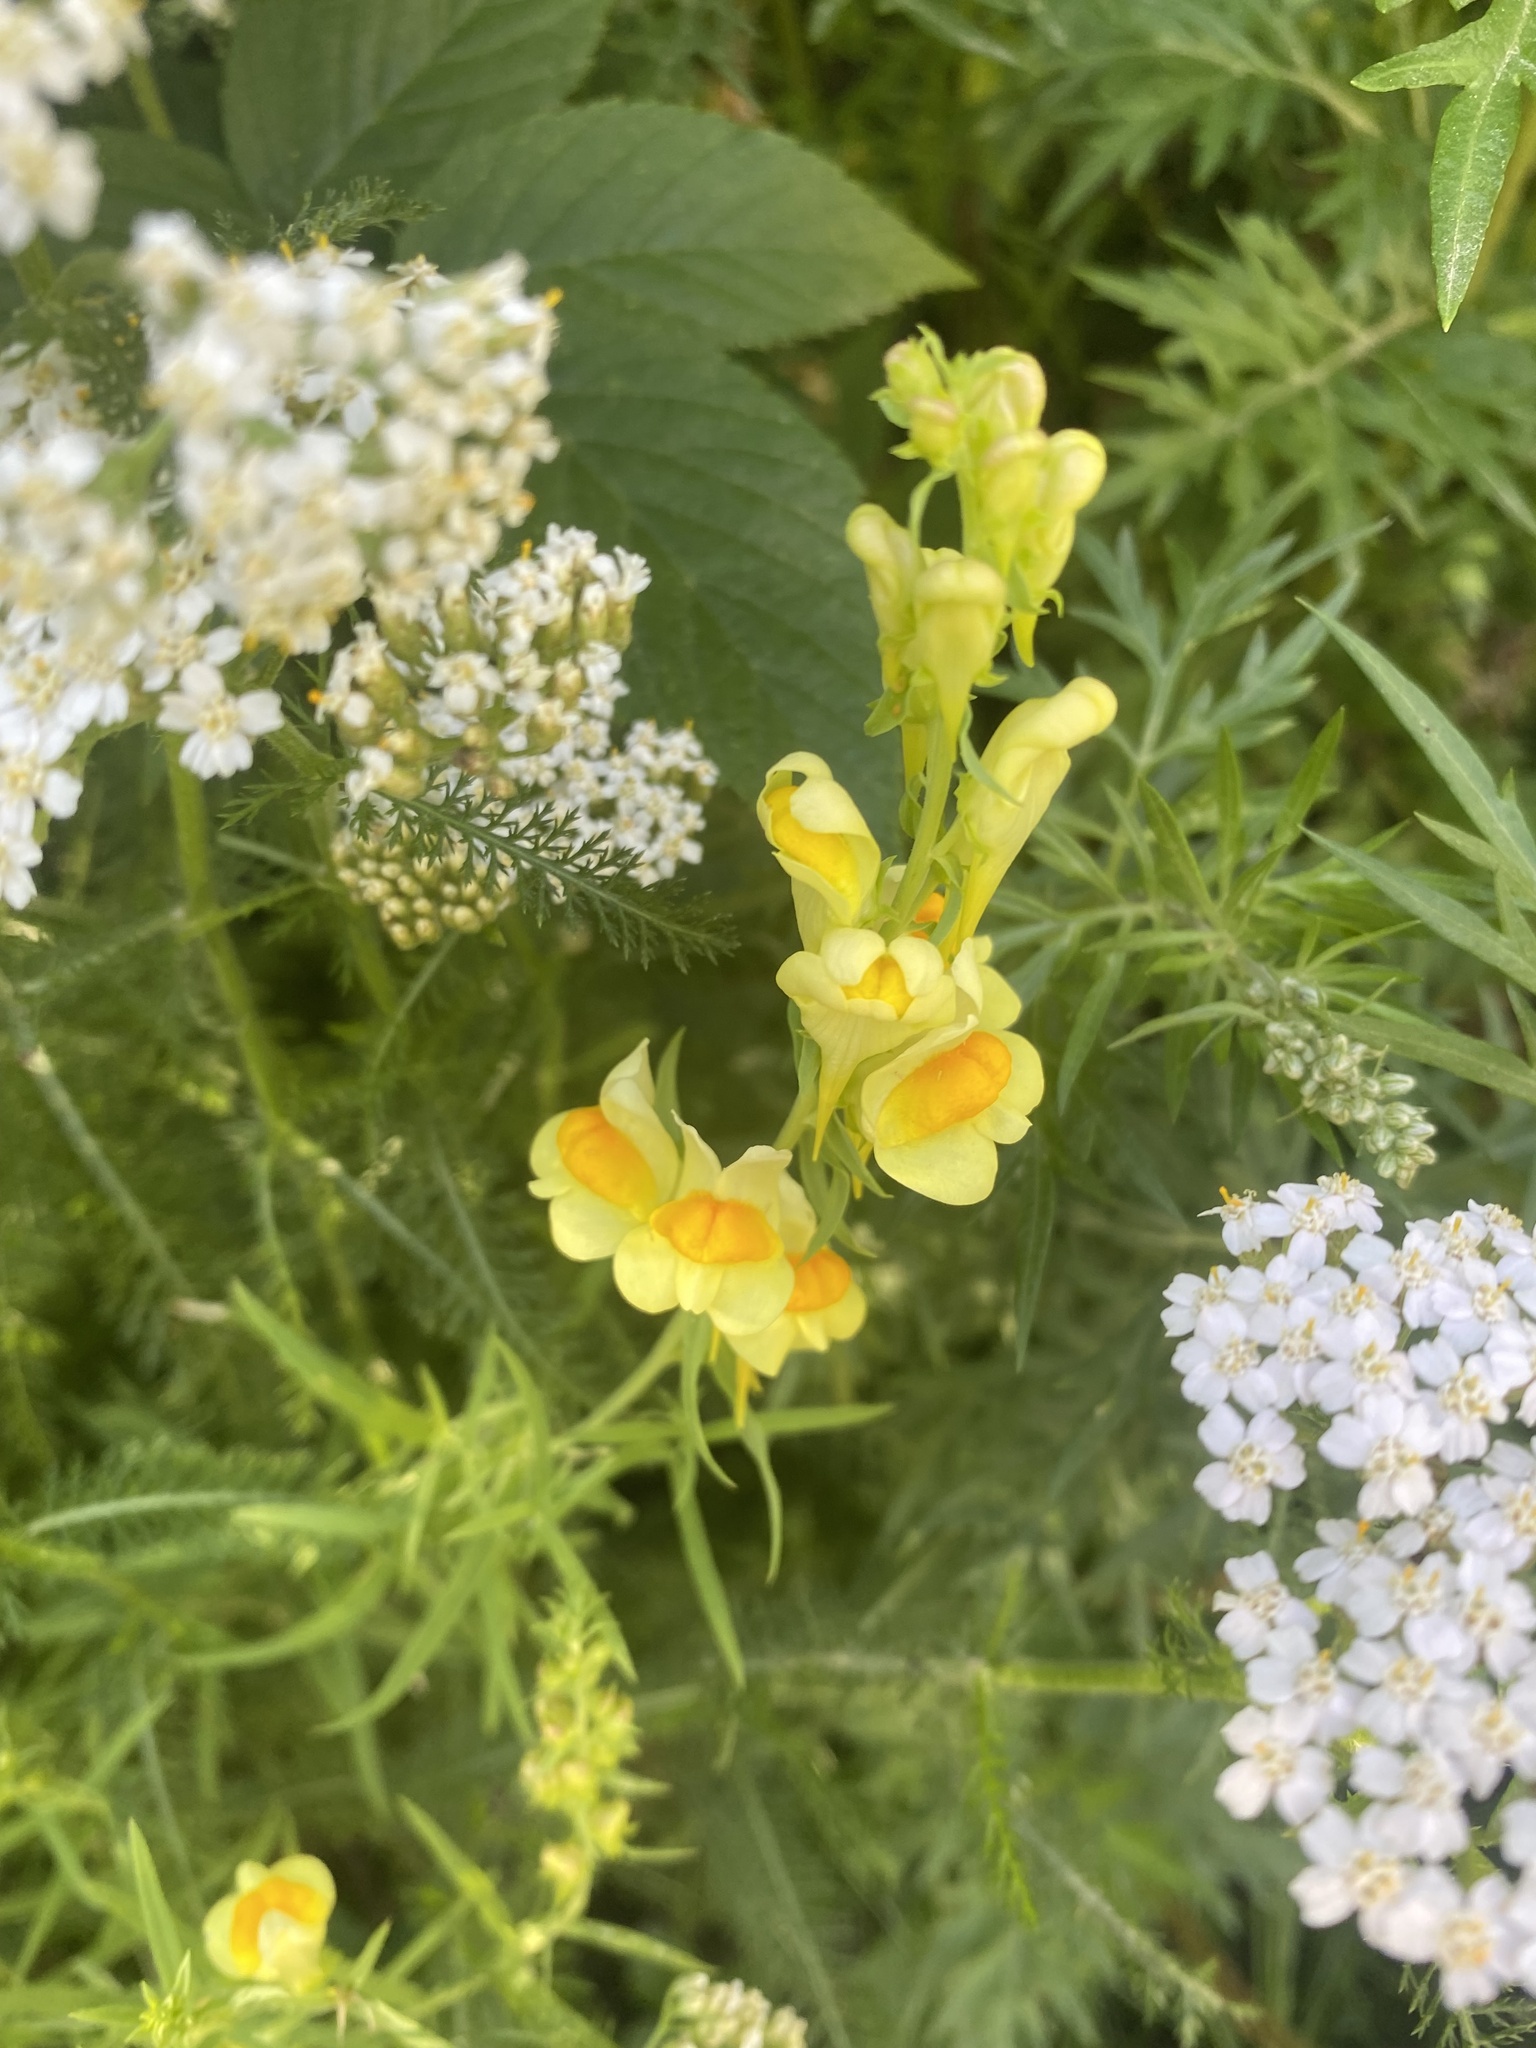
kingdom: Plantae
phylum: Tracheophyta
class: Magnoliopsida
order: Lamiales
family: Plantaginaceae
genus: Linaria
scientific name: Linaria vulgaris
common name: Butter and eggs
